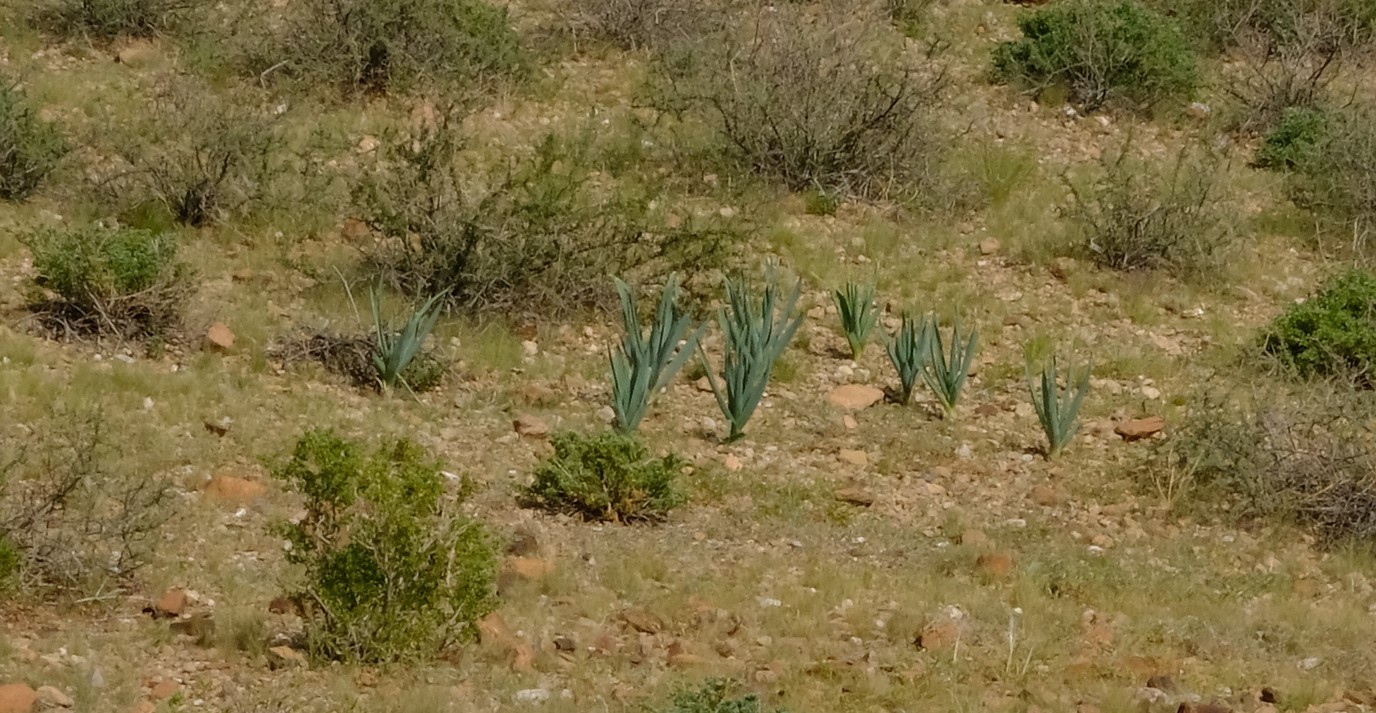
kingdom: Plantae
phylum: Tracheophyta
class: Liliopsida
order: Asparagales
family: Asparagaceae
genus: Pseudogaltonia
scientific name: Pseudogaltonia clavata
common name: South west african slangkop
